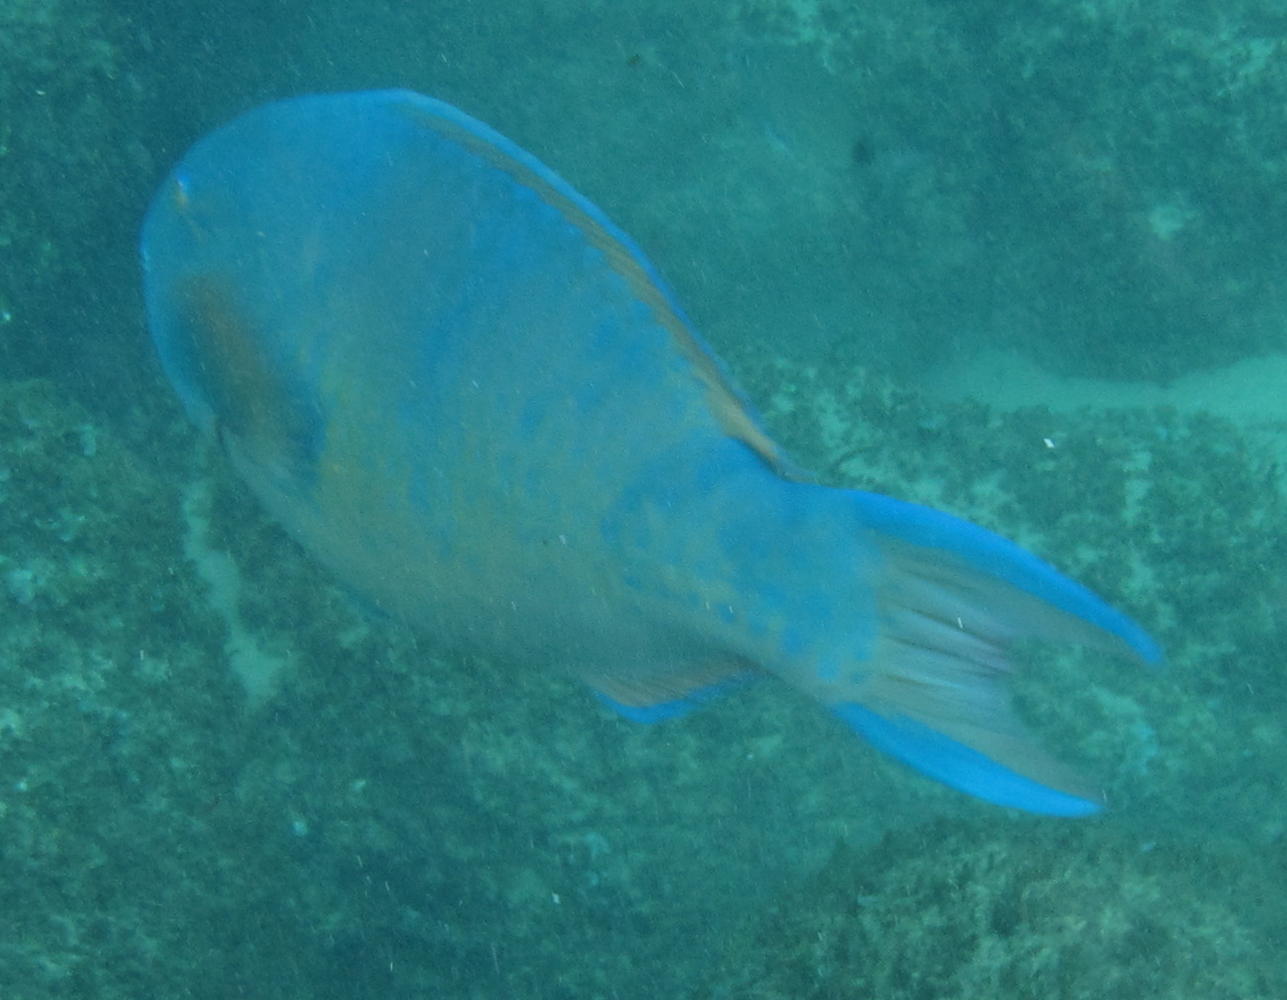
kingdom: Animalia
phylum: Chordata
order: Perciformes
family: Scaridae
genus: Scarus
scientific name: Scarus ghobban
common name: Blue-barred parrotfish
